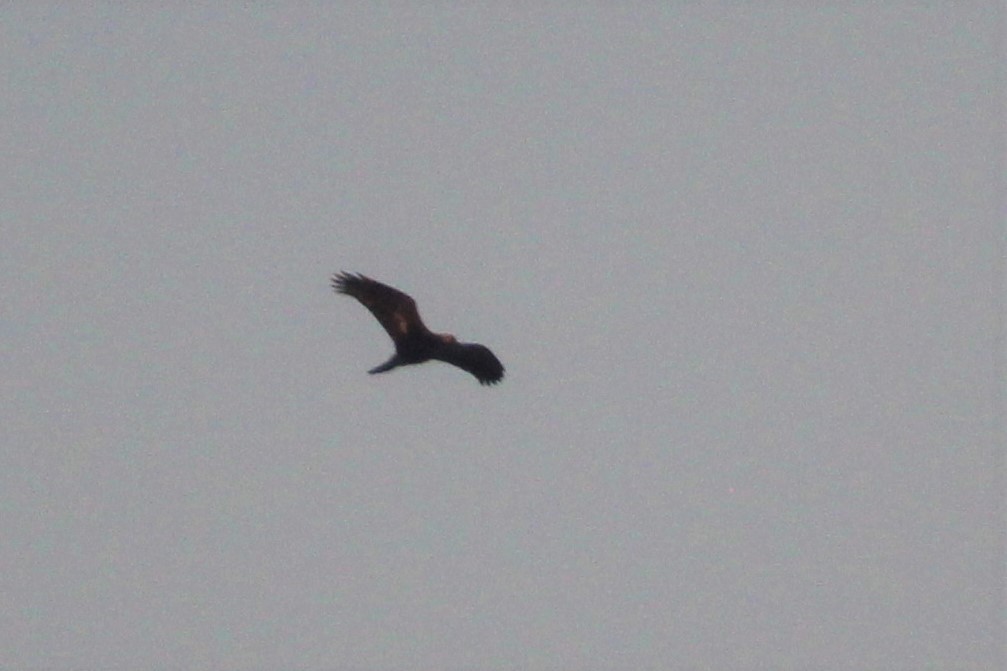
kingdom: Animalia
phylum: Chordata
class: Aves
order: Accipitriformes
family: Accipitridae
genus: Aquila
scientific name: Aquila chrysaetos
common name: Golden eagle
